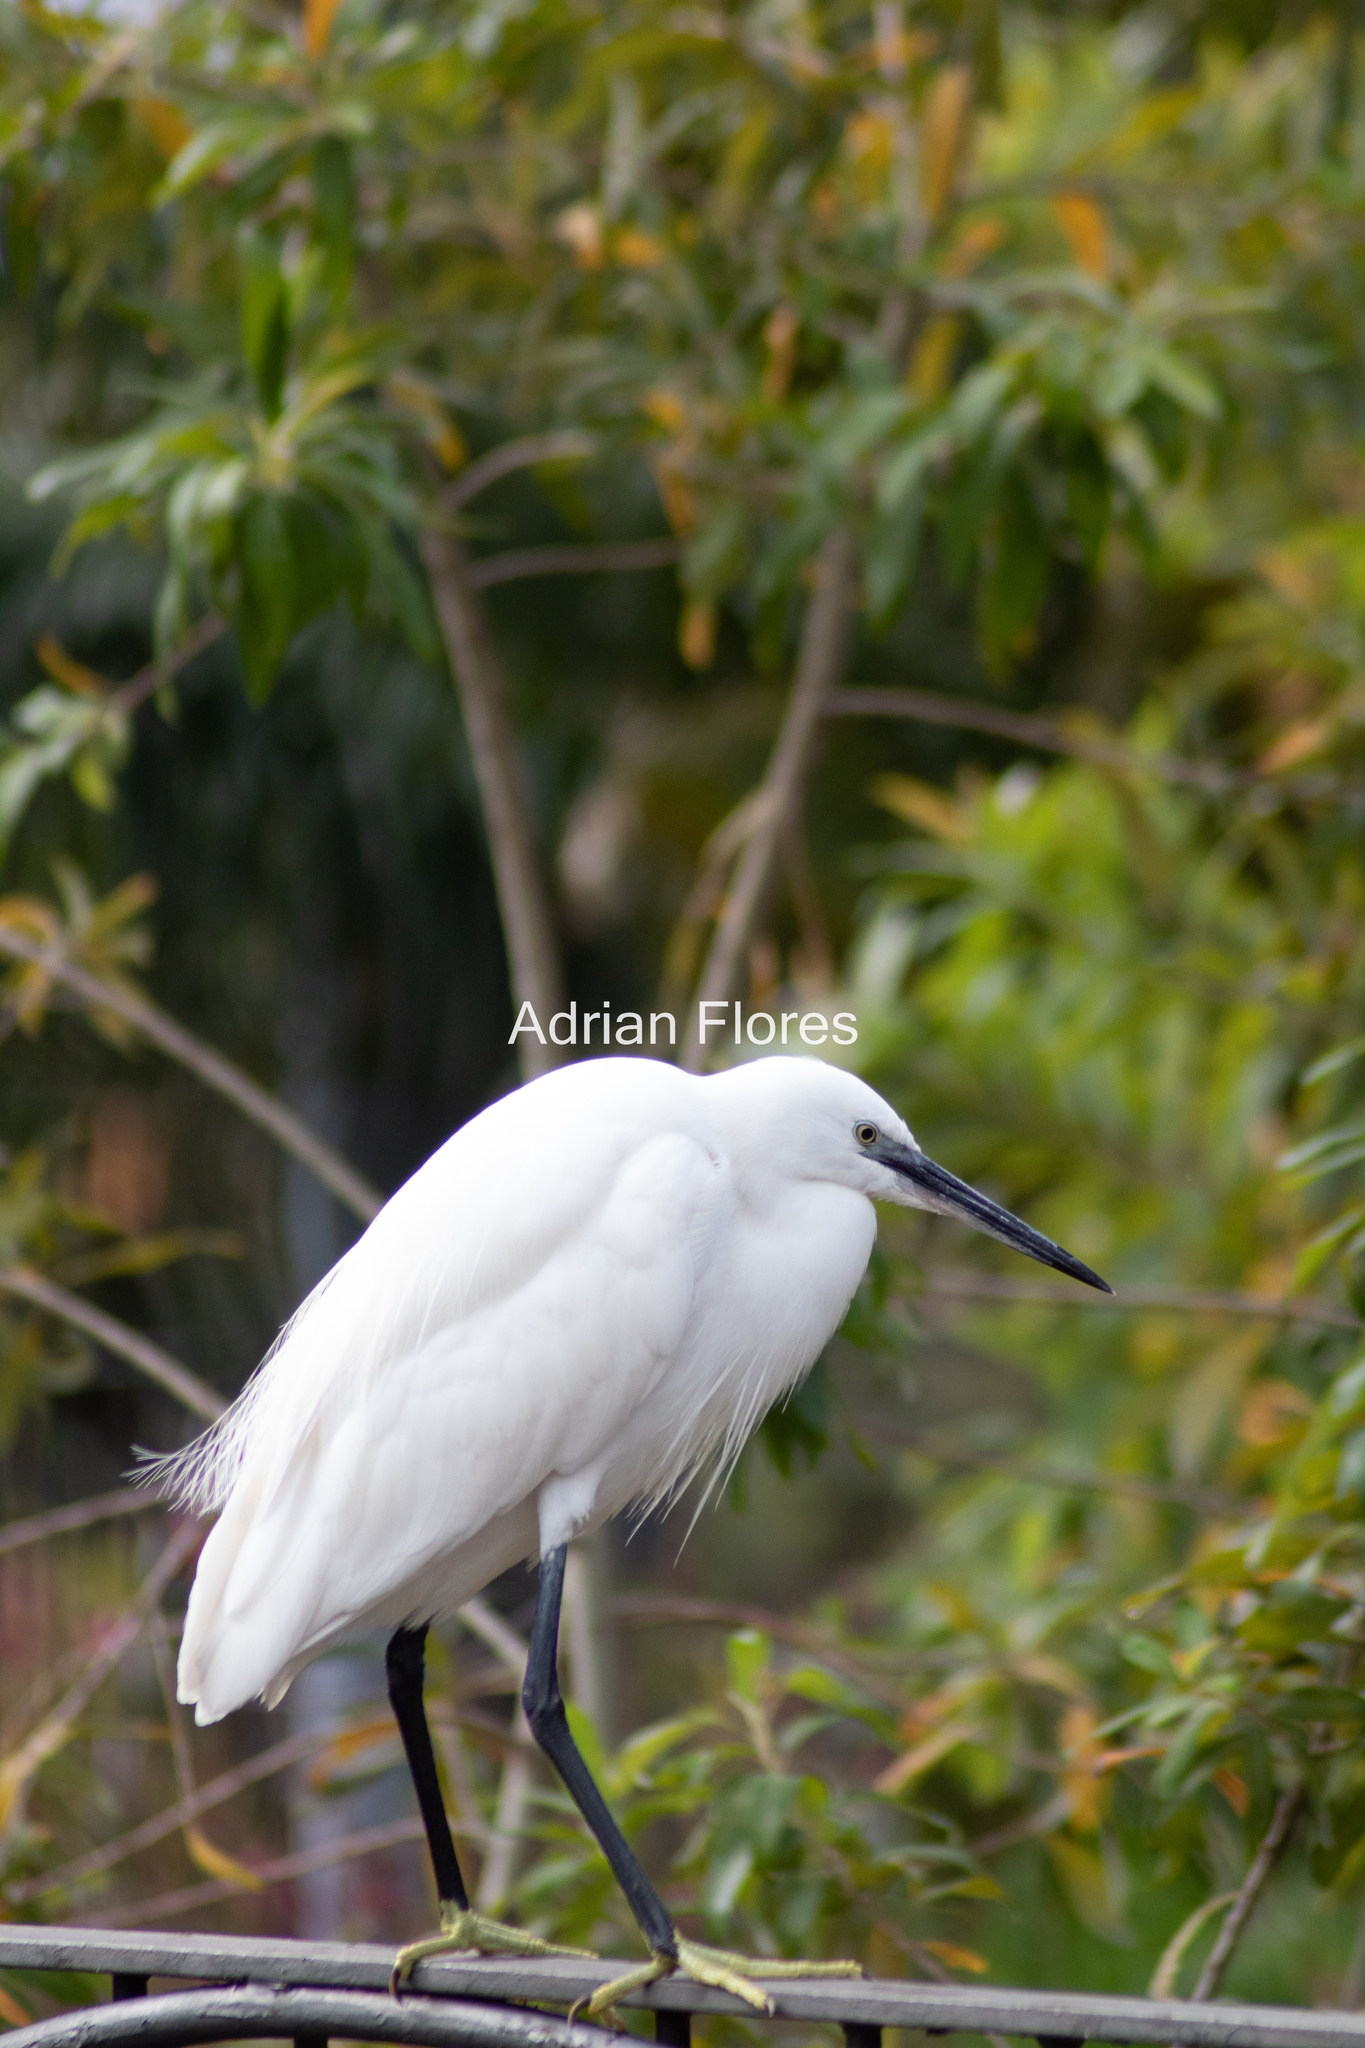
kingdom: Animalia
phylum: Chordata
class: Aves
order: Pelecaniformes
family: Ardeidae
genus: Egretta
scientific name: Egretta garzetta
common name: Little egret
